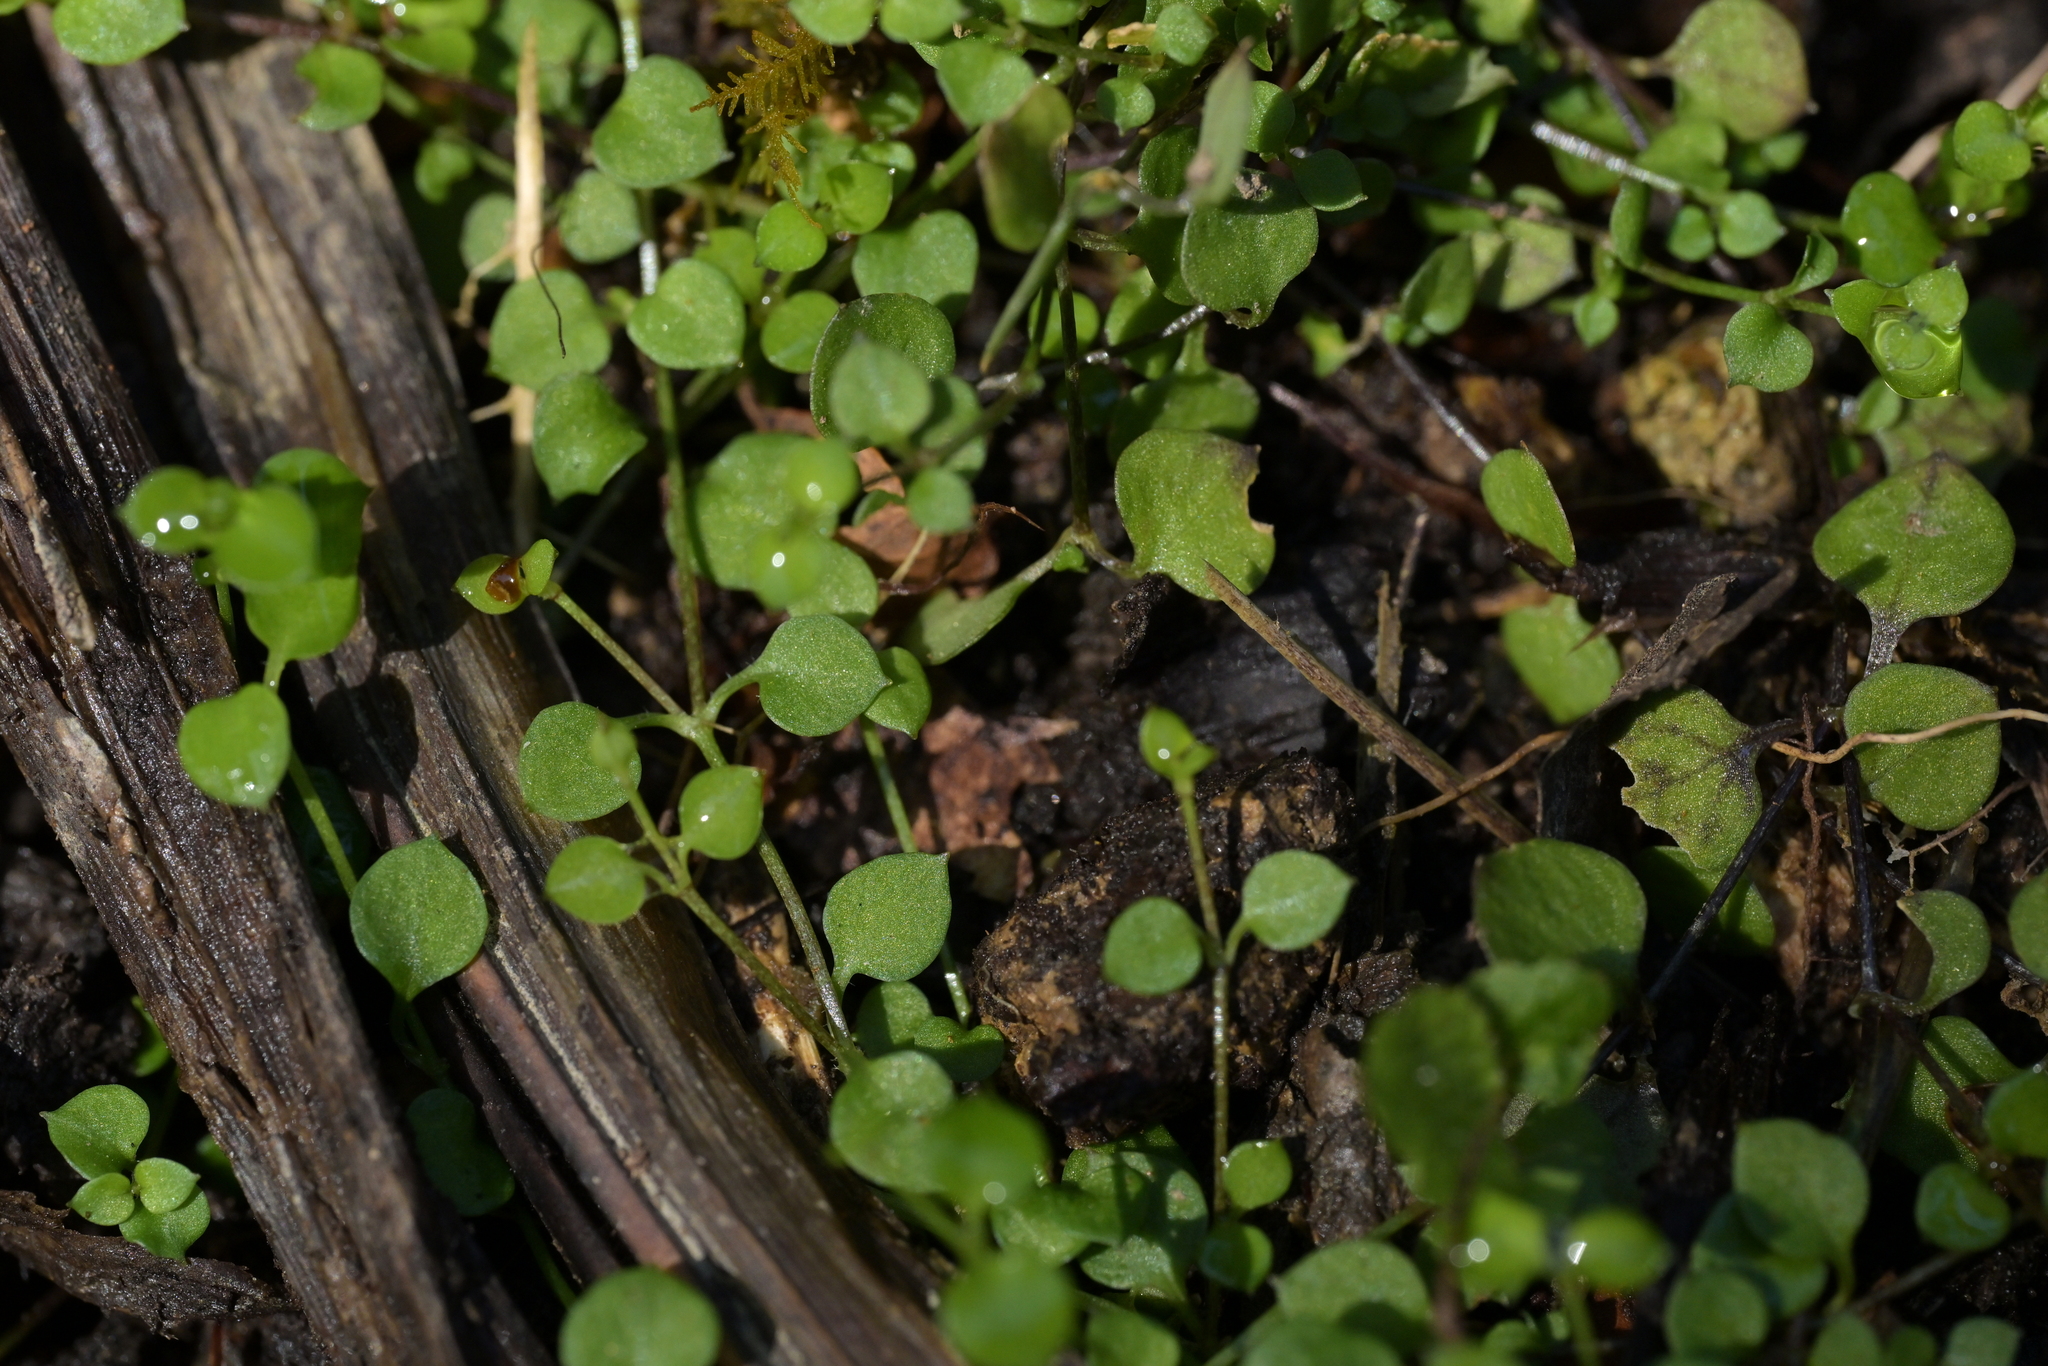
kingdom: Plantae
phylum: Tracheophyta
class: Polypodiopsida
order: Polypodiales
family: Blechnaceae
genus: Icarus
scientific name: Icarus filiformis
